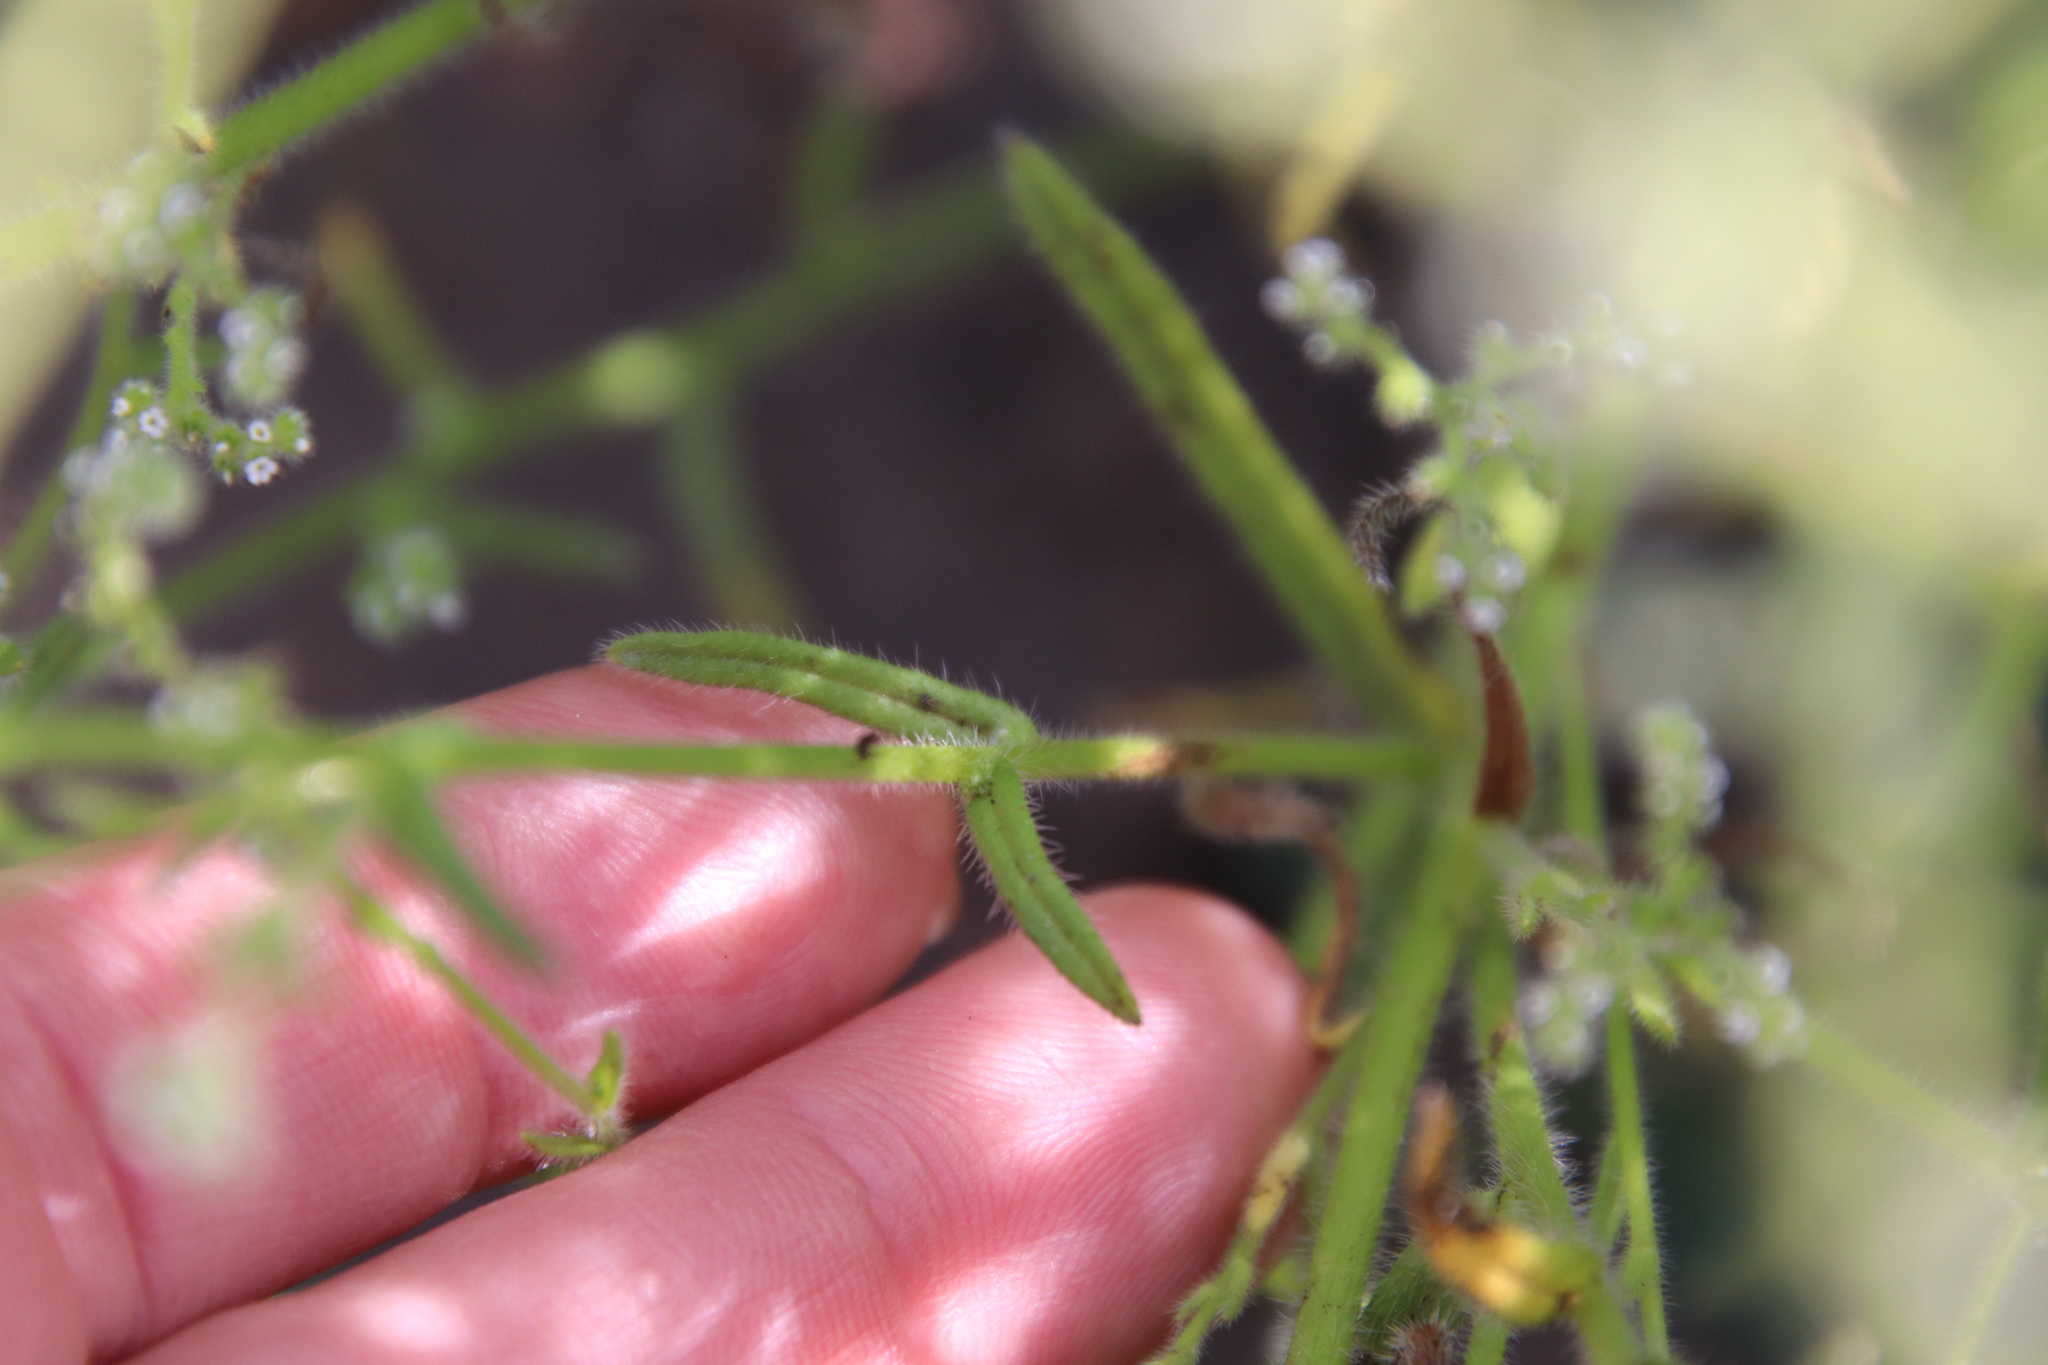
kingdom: Plantae
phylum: Tracheophyta
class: Magnoliopsida
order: Boraginales
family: Boraginaceae
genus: Johnstonella
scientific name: Johnstonella micromeres
